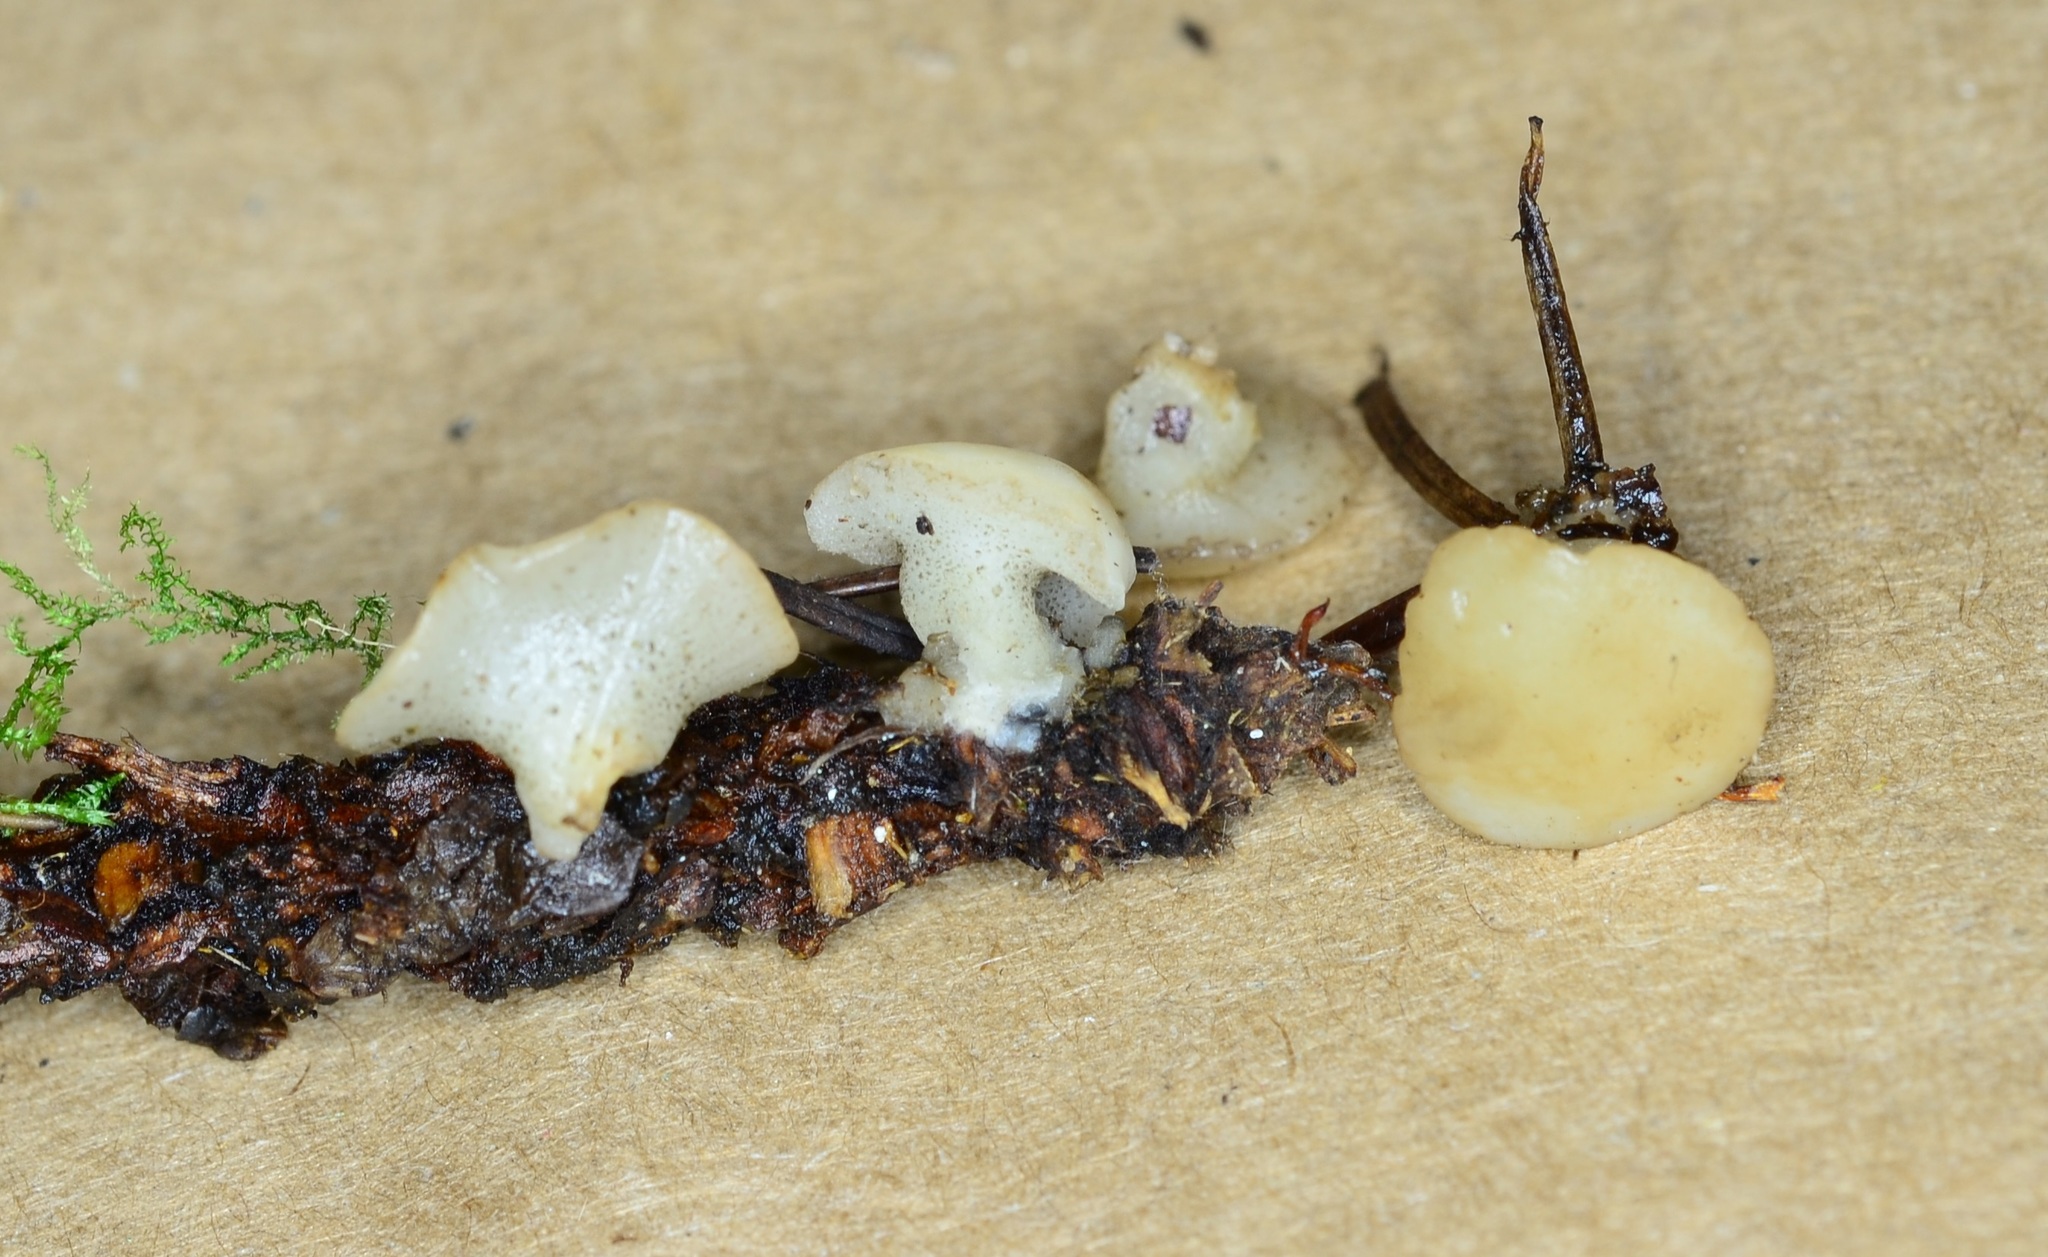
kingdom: Fungi
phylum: Ascomycota
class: Leotiomycetes
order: Helotiales
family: Tricladiaceae
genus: Cudoniella
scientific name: Cudoniella clavus
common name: Spring pin
